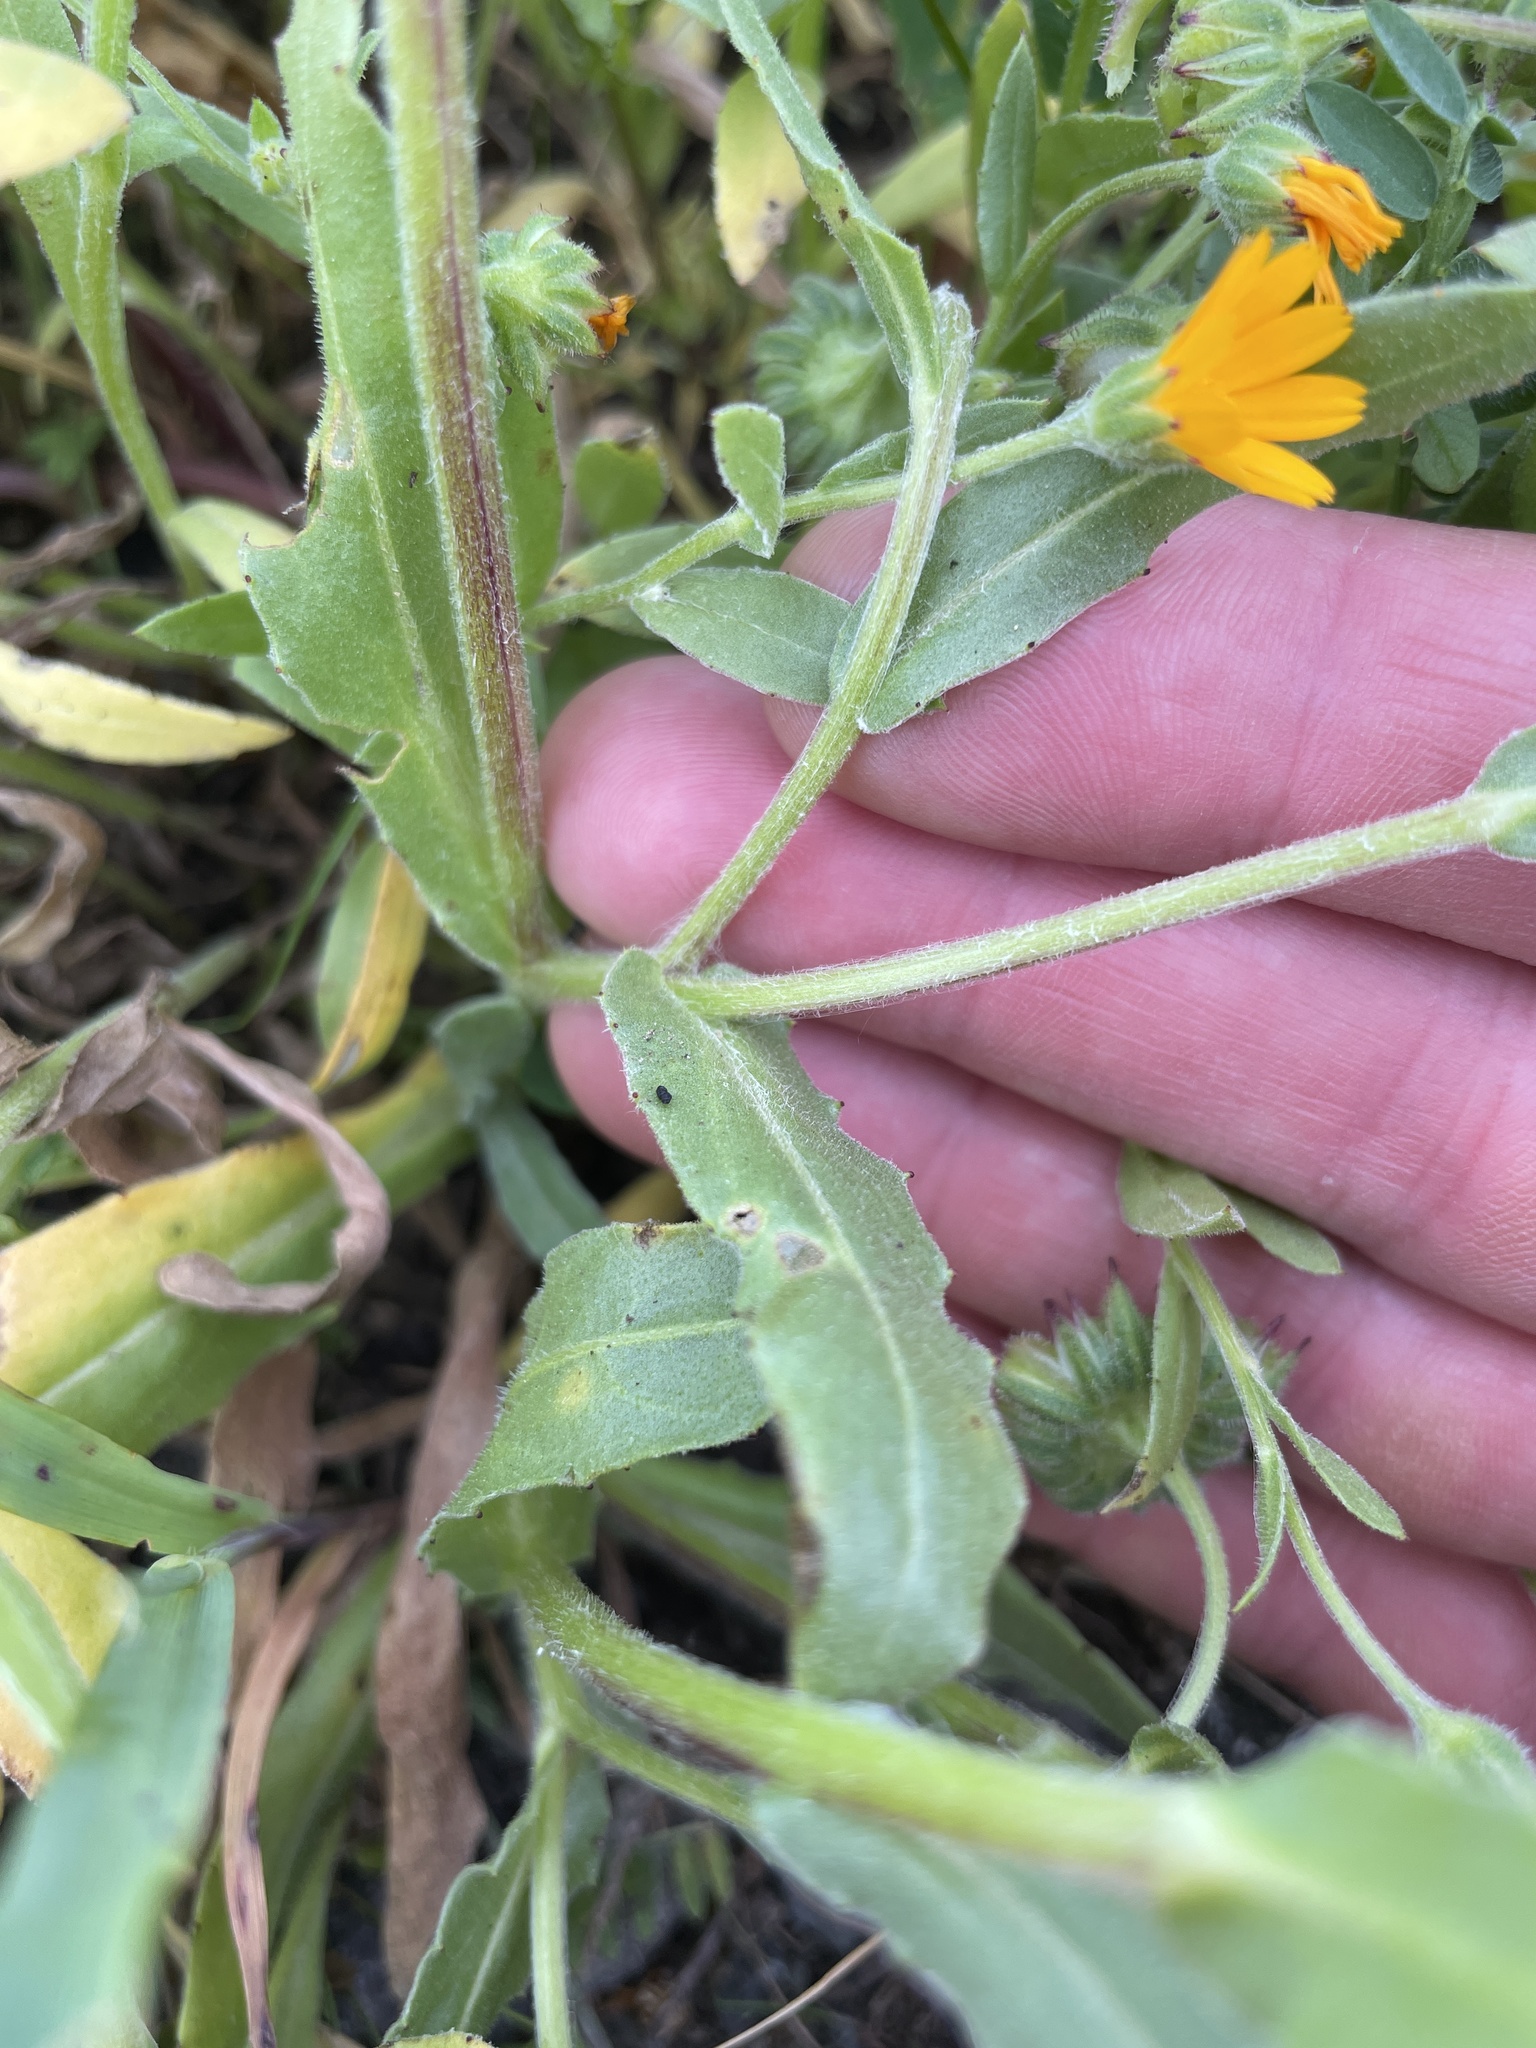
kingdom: Plantae
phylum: Tracheophyta
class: Magnoliopsida
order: Asterales
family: Asteraceae
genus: Calendula
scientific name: Calendula arvensis
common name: Field marigold
